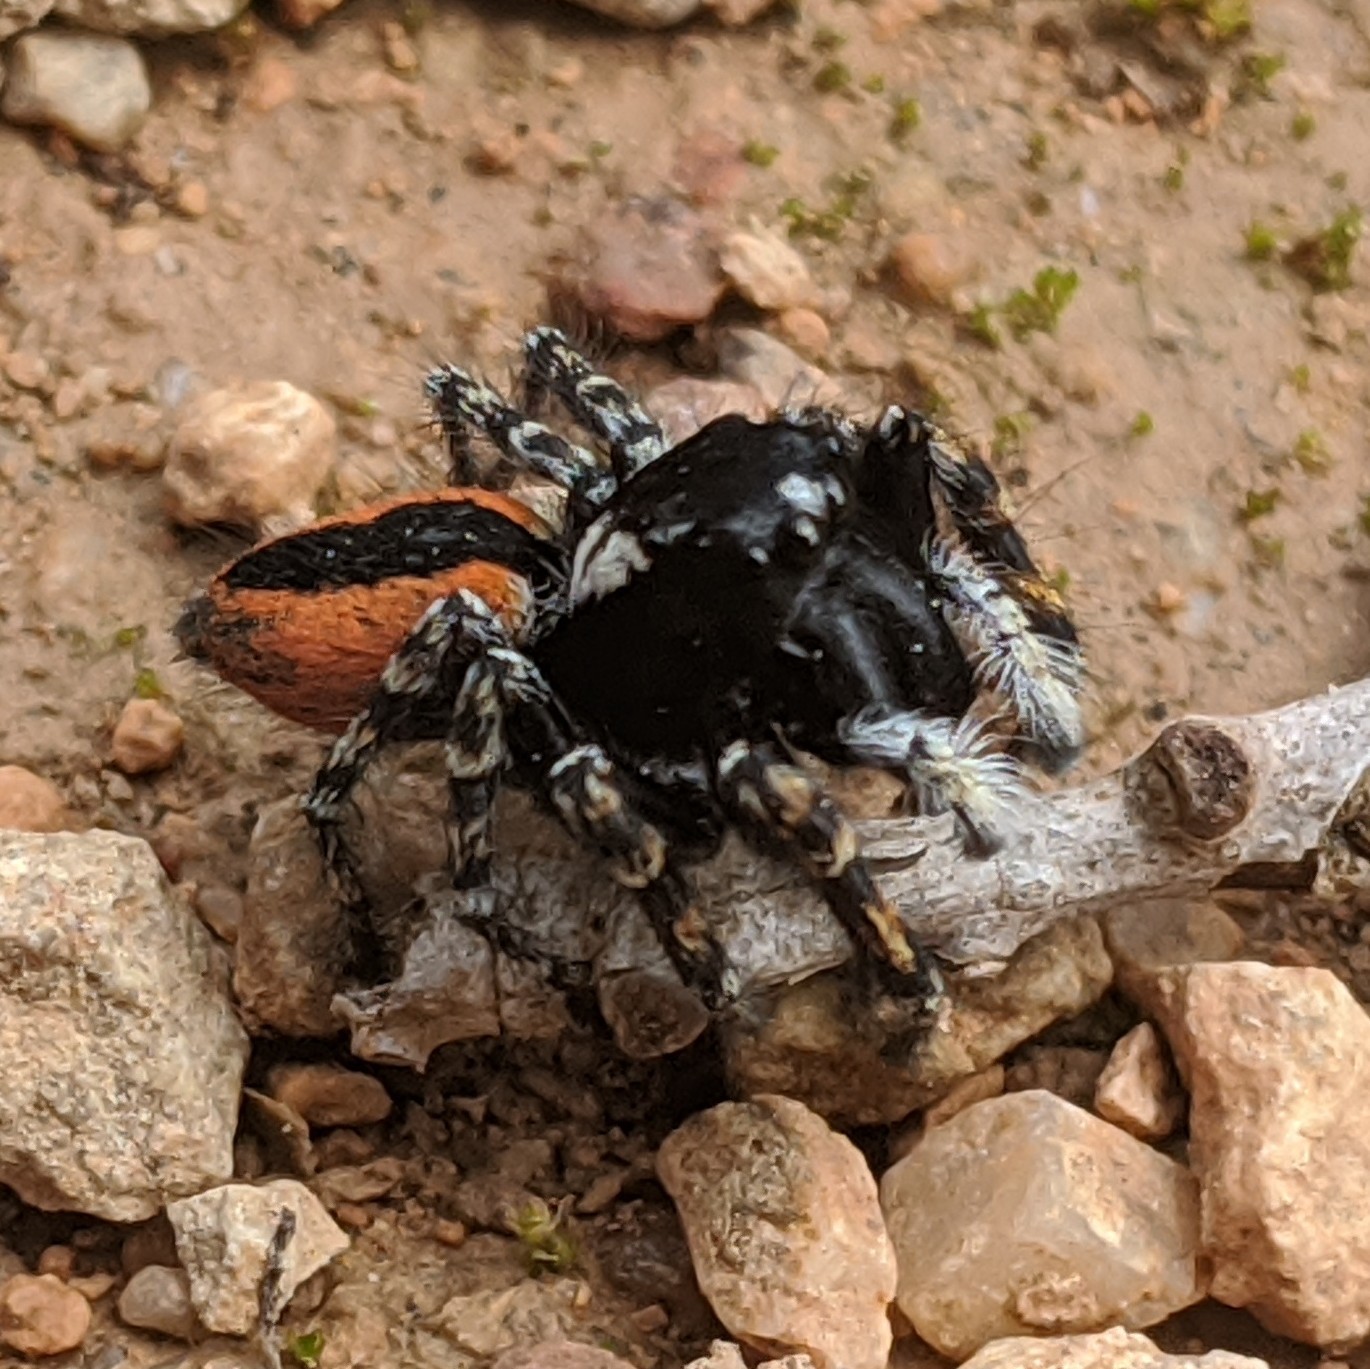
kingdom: Animalia
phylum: Arthropoda
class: Arachnida
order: Araneae
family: Salticidae
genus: Philaeus
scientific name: Philaeus chrysops
